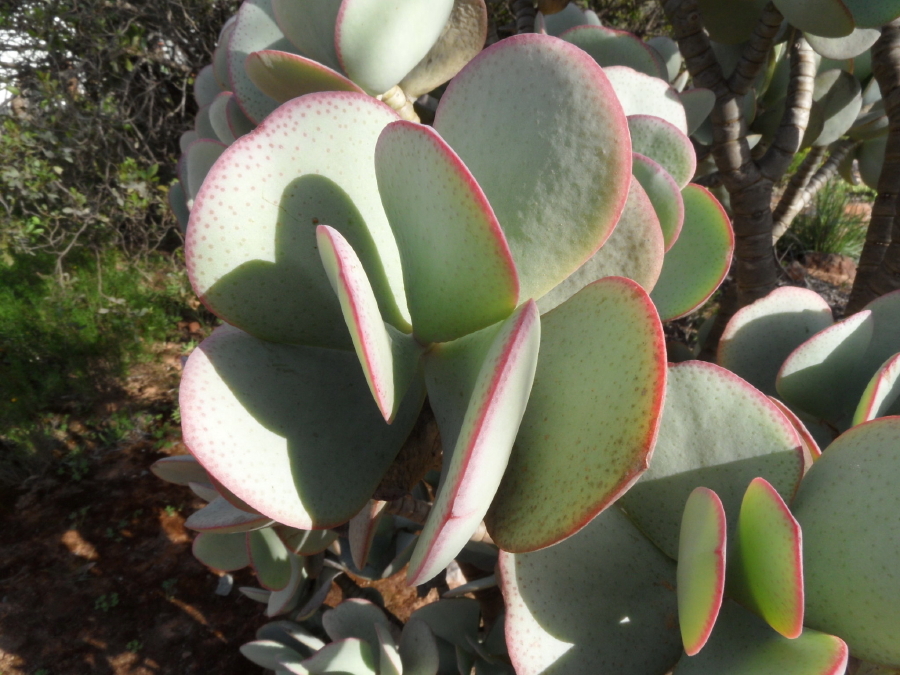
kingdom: Plantae
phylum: Tracheophyta
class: Magnoliopsida
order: Saxifragales
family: Crassulaceae
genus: Crassula
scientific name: Crassula arborescens
